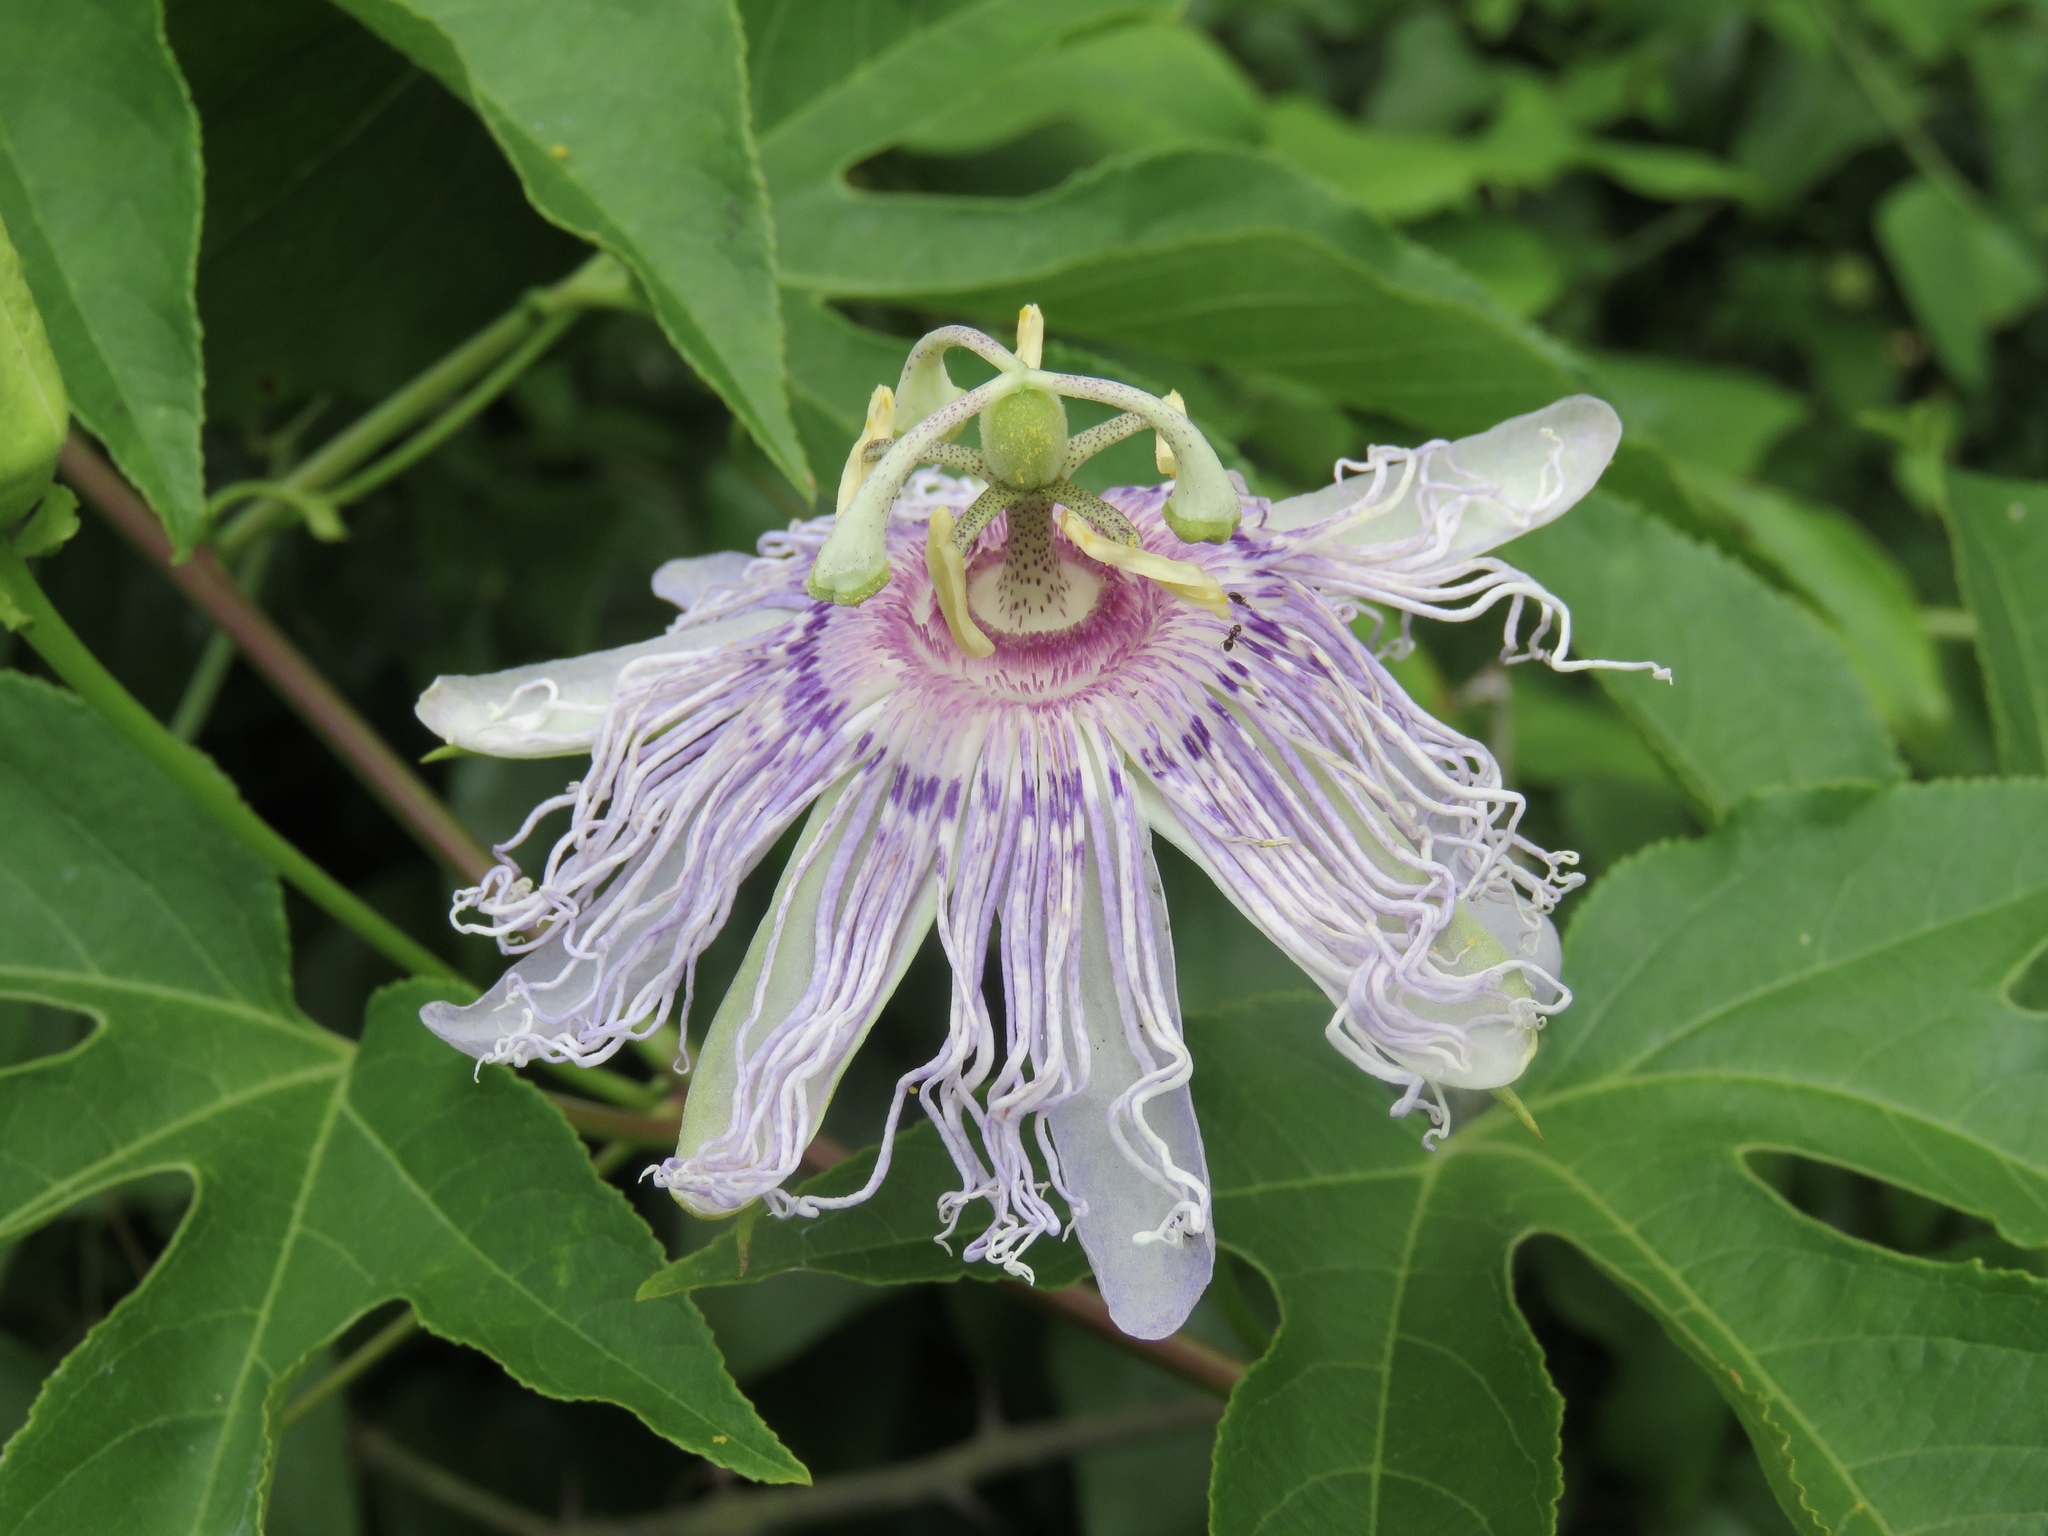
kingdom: Plantae
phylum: Tracheophyta
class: Magnoliopsida
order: Malpighiales
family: Passifloraceae
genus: Passiflora
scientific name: Passiflora incarnata
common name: Apricot-vine
